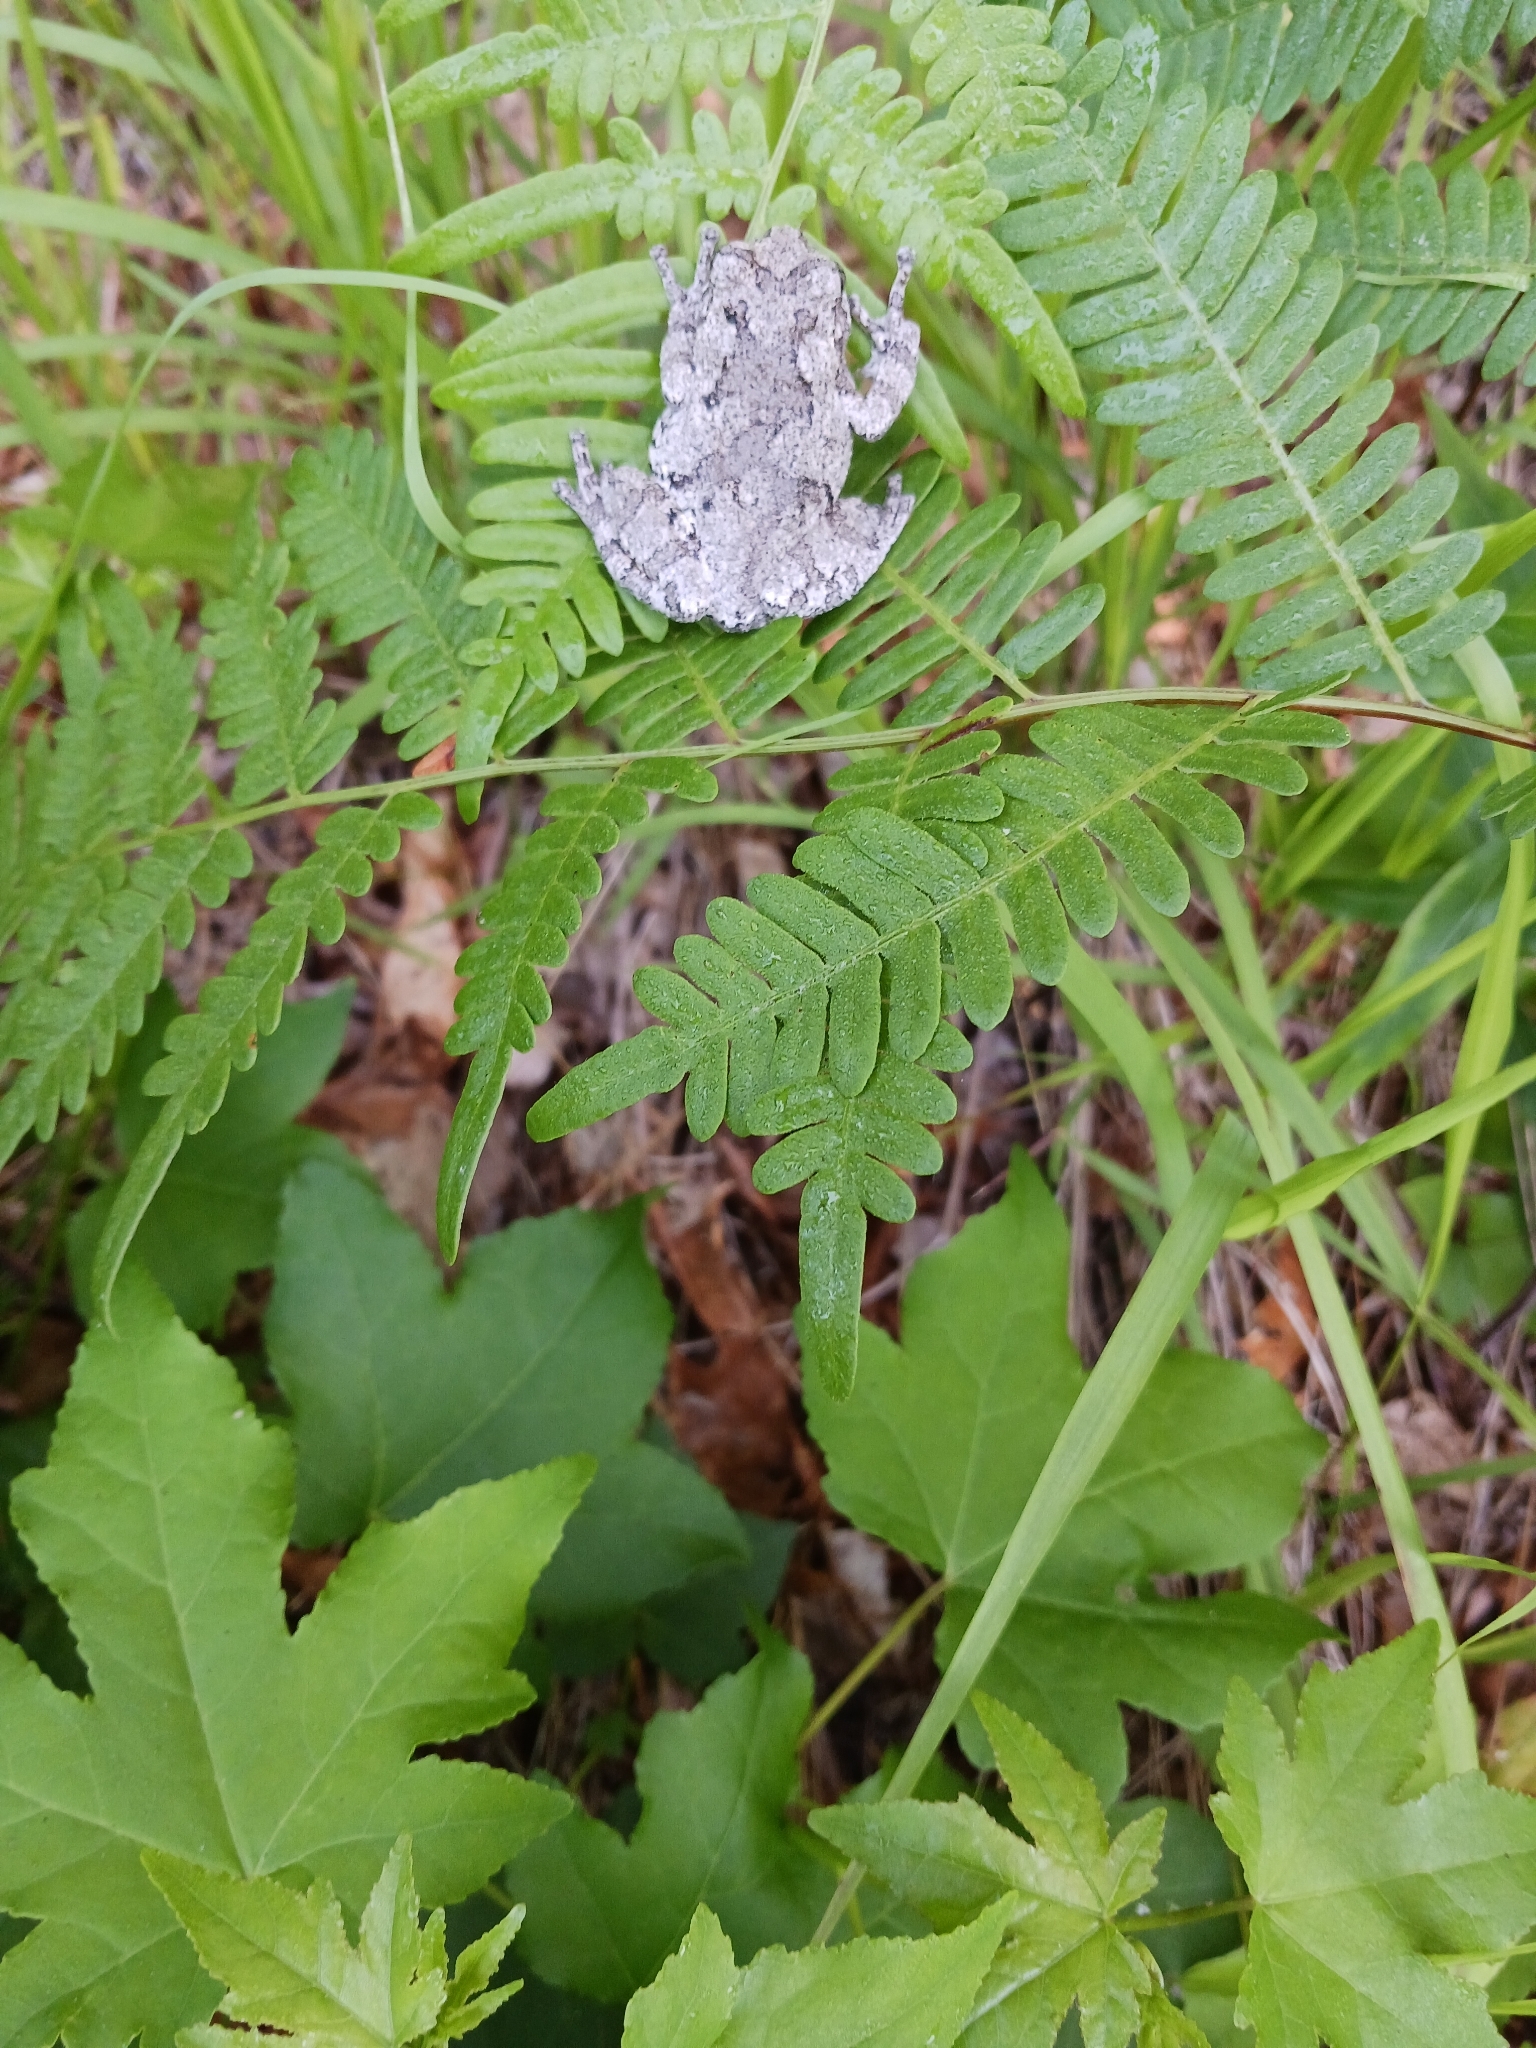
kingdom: Animalia
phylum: Chordata
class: Amphibia
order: Anura
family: Hylidae
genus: Hyla
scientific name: Hyla
